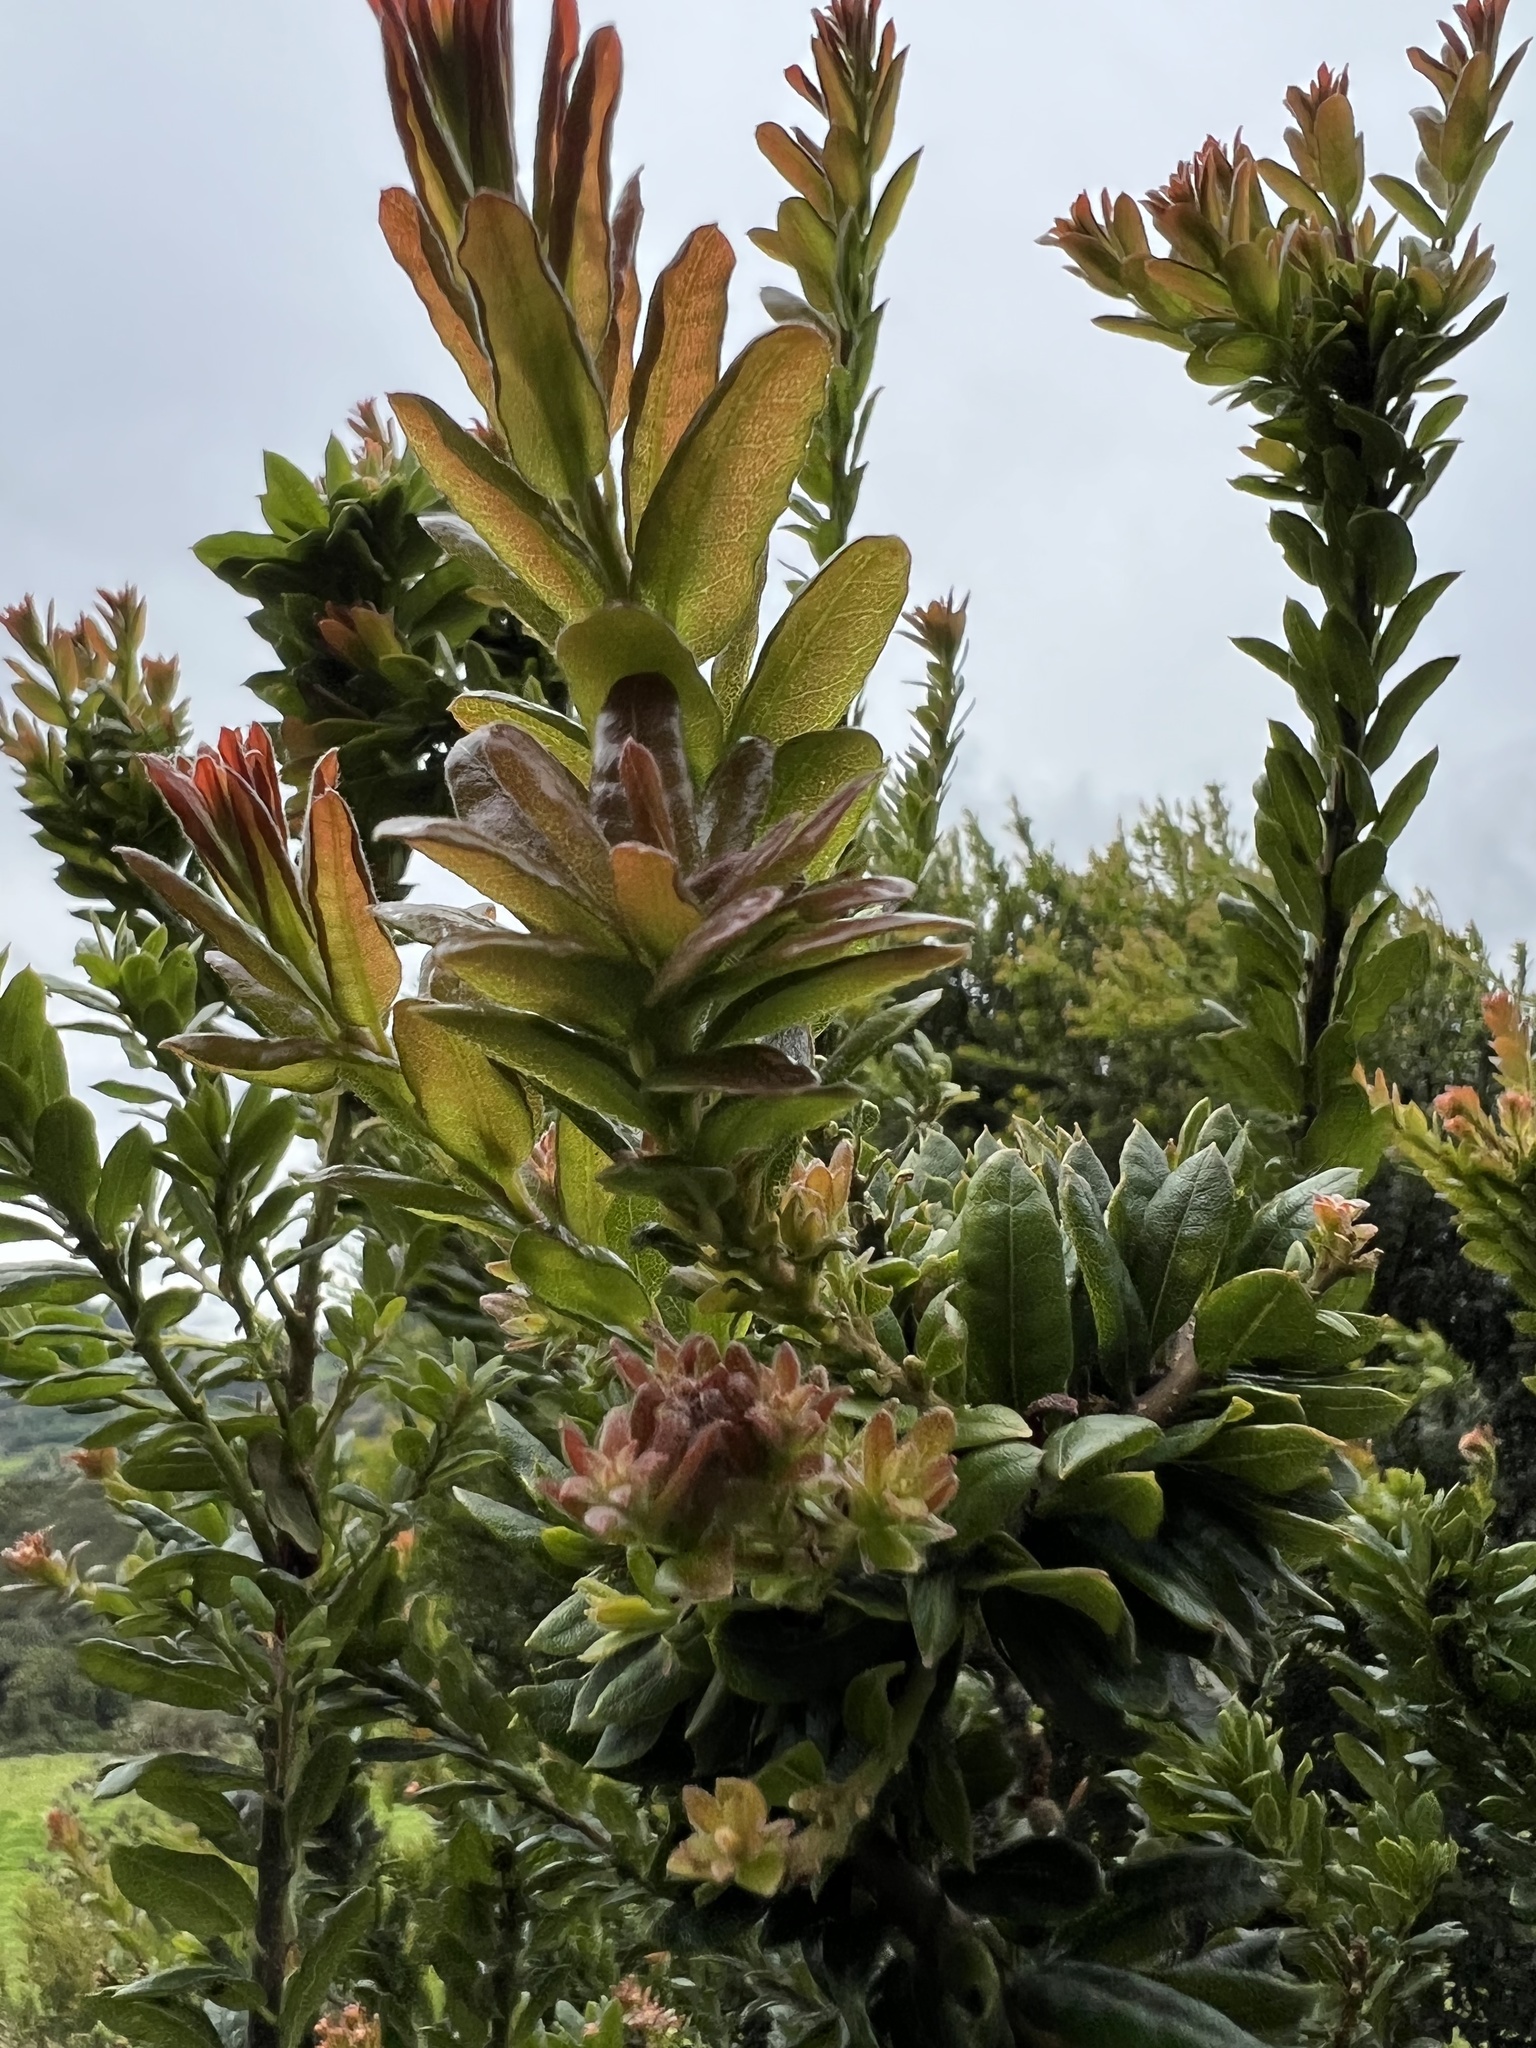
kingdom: Plantae
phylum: Tracheophyta
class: Magnoliopsida
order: Fagales
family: Myricaceae
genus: Morella
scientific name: Morella parvifolia
